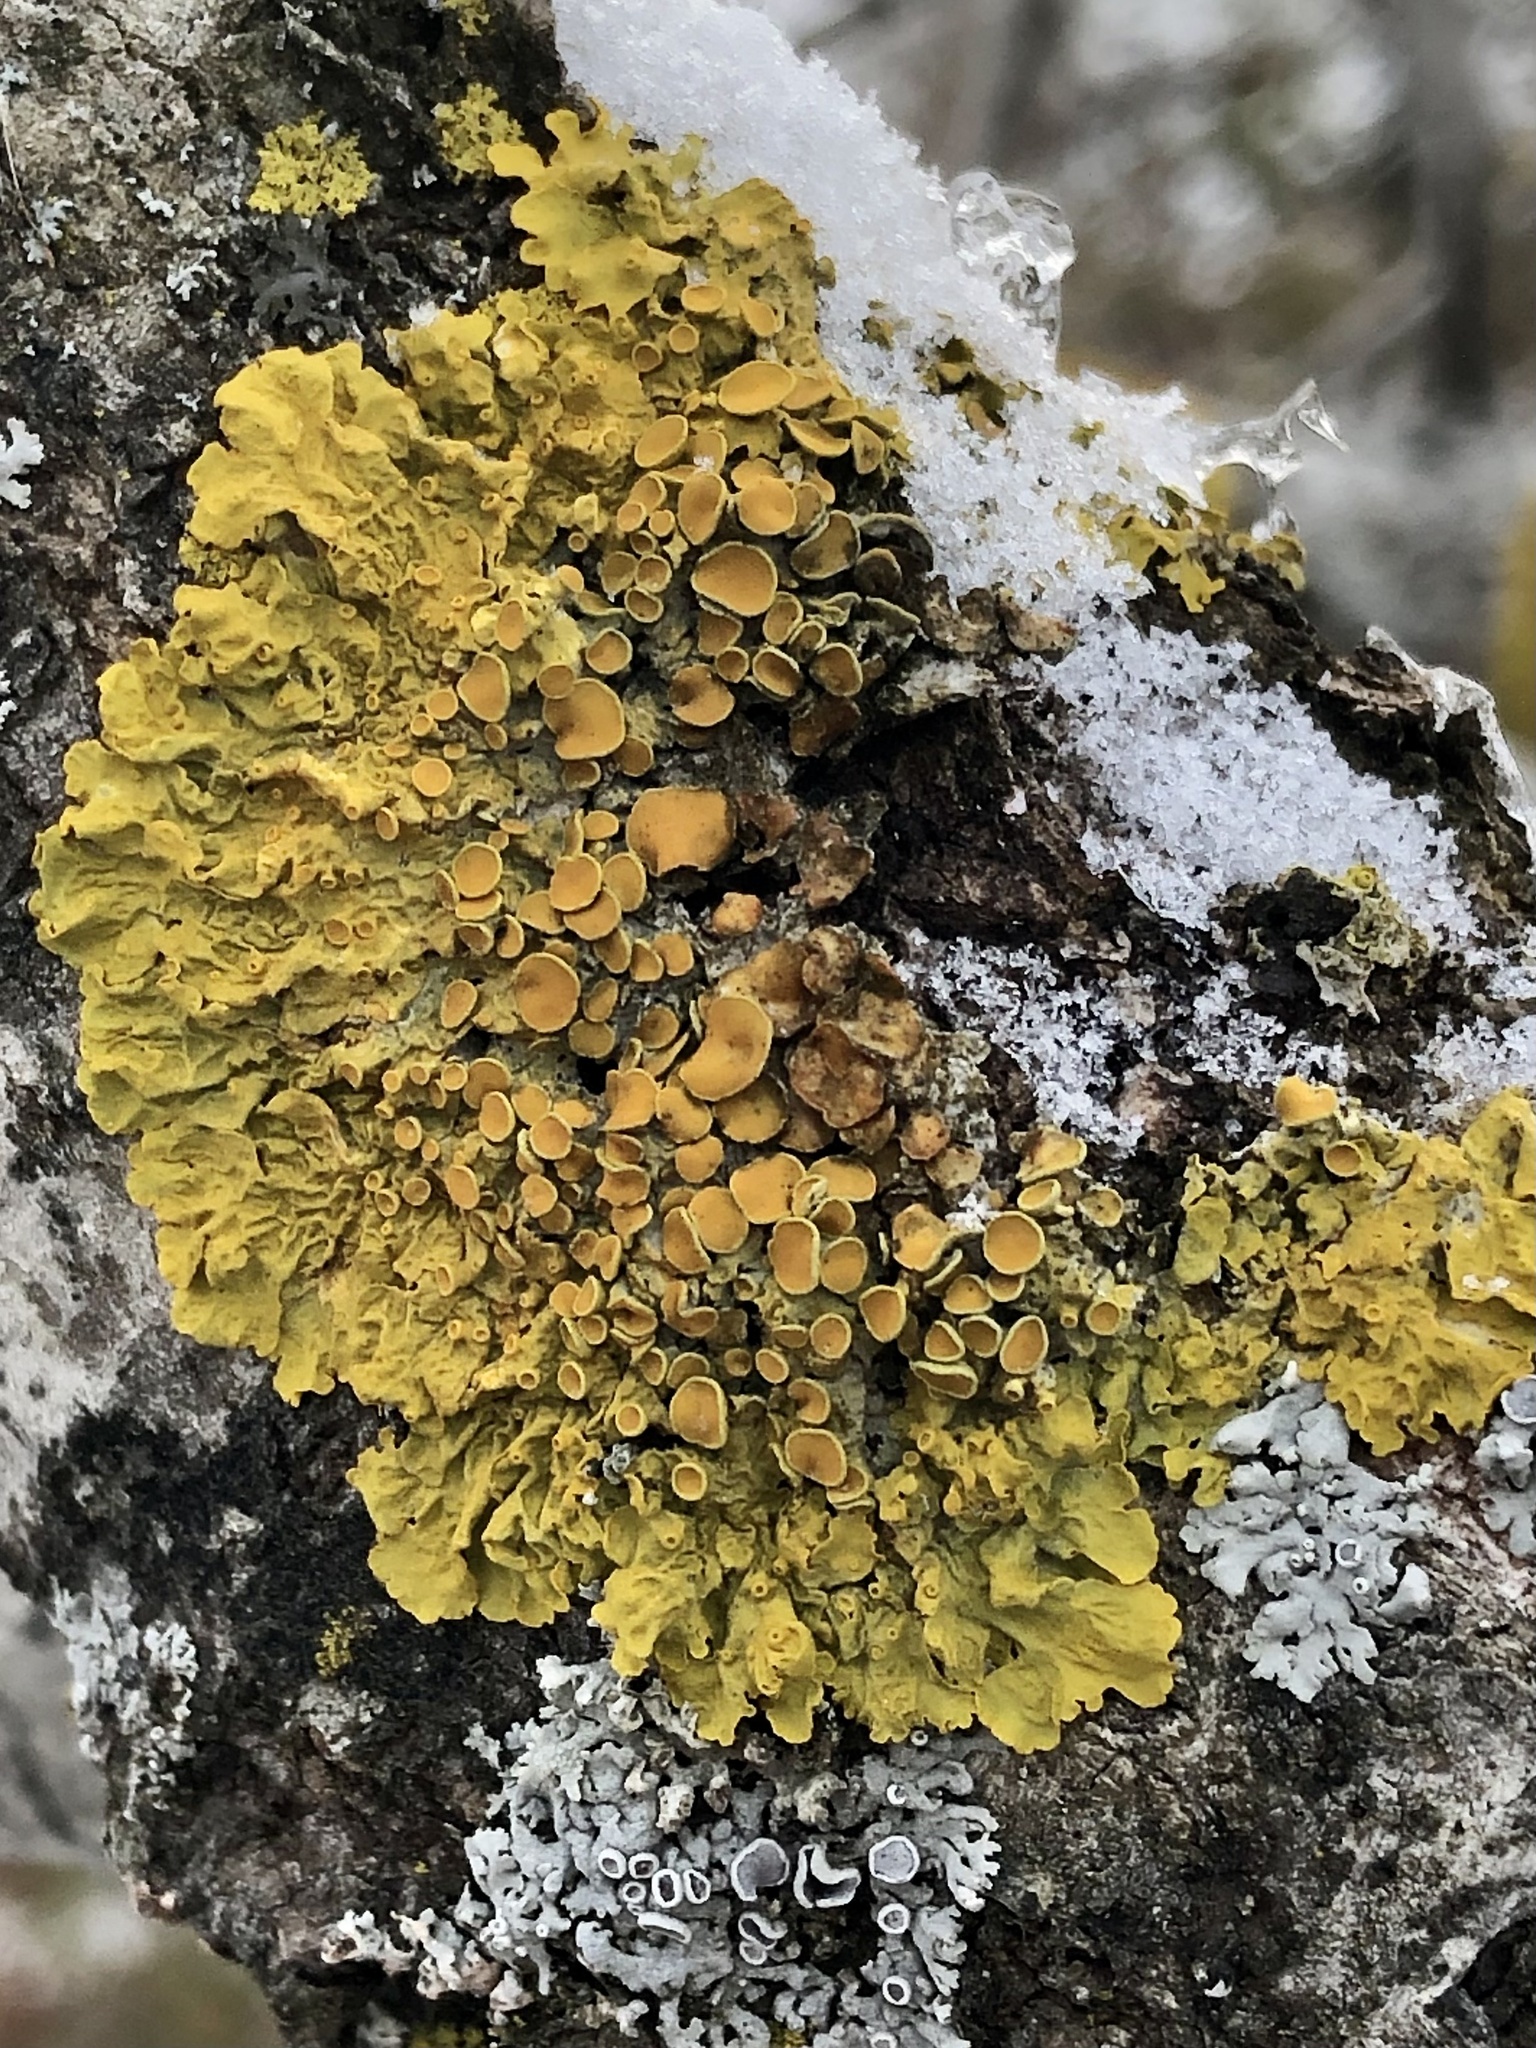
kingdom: Fungi
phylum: Ascomycota
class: Lecanoromycetes
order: Teloschistales
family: Teloschistaceae
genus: Xanthoria
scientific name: Xanthoria parietina
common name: Common orange lichen
